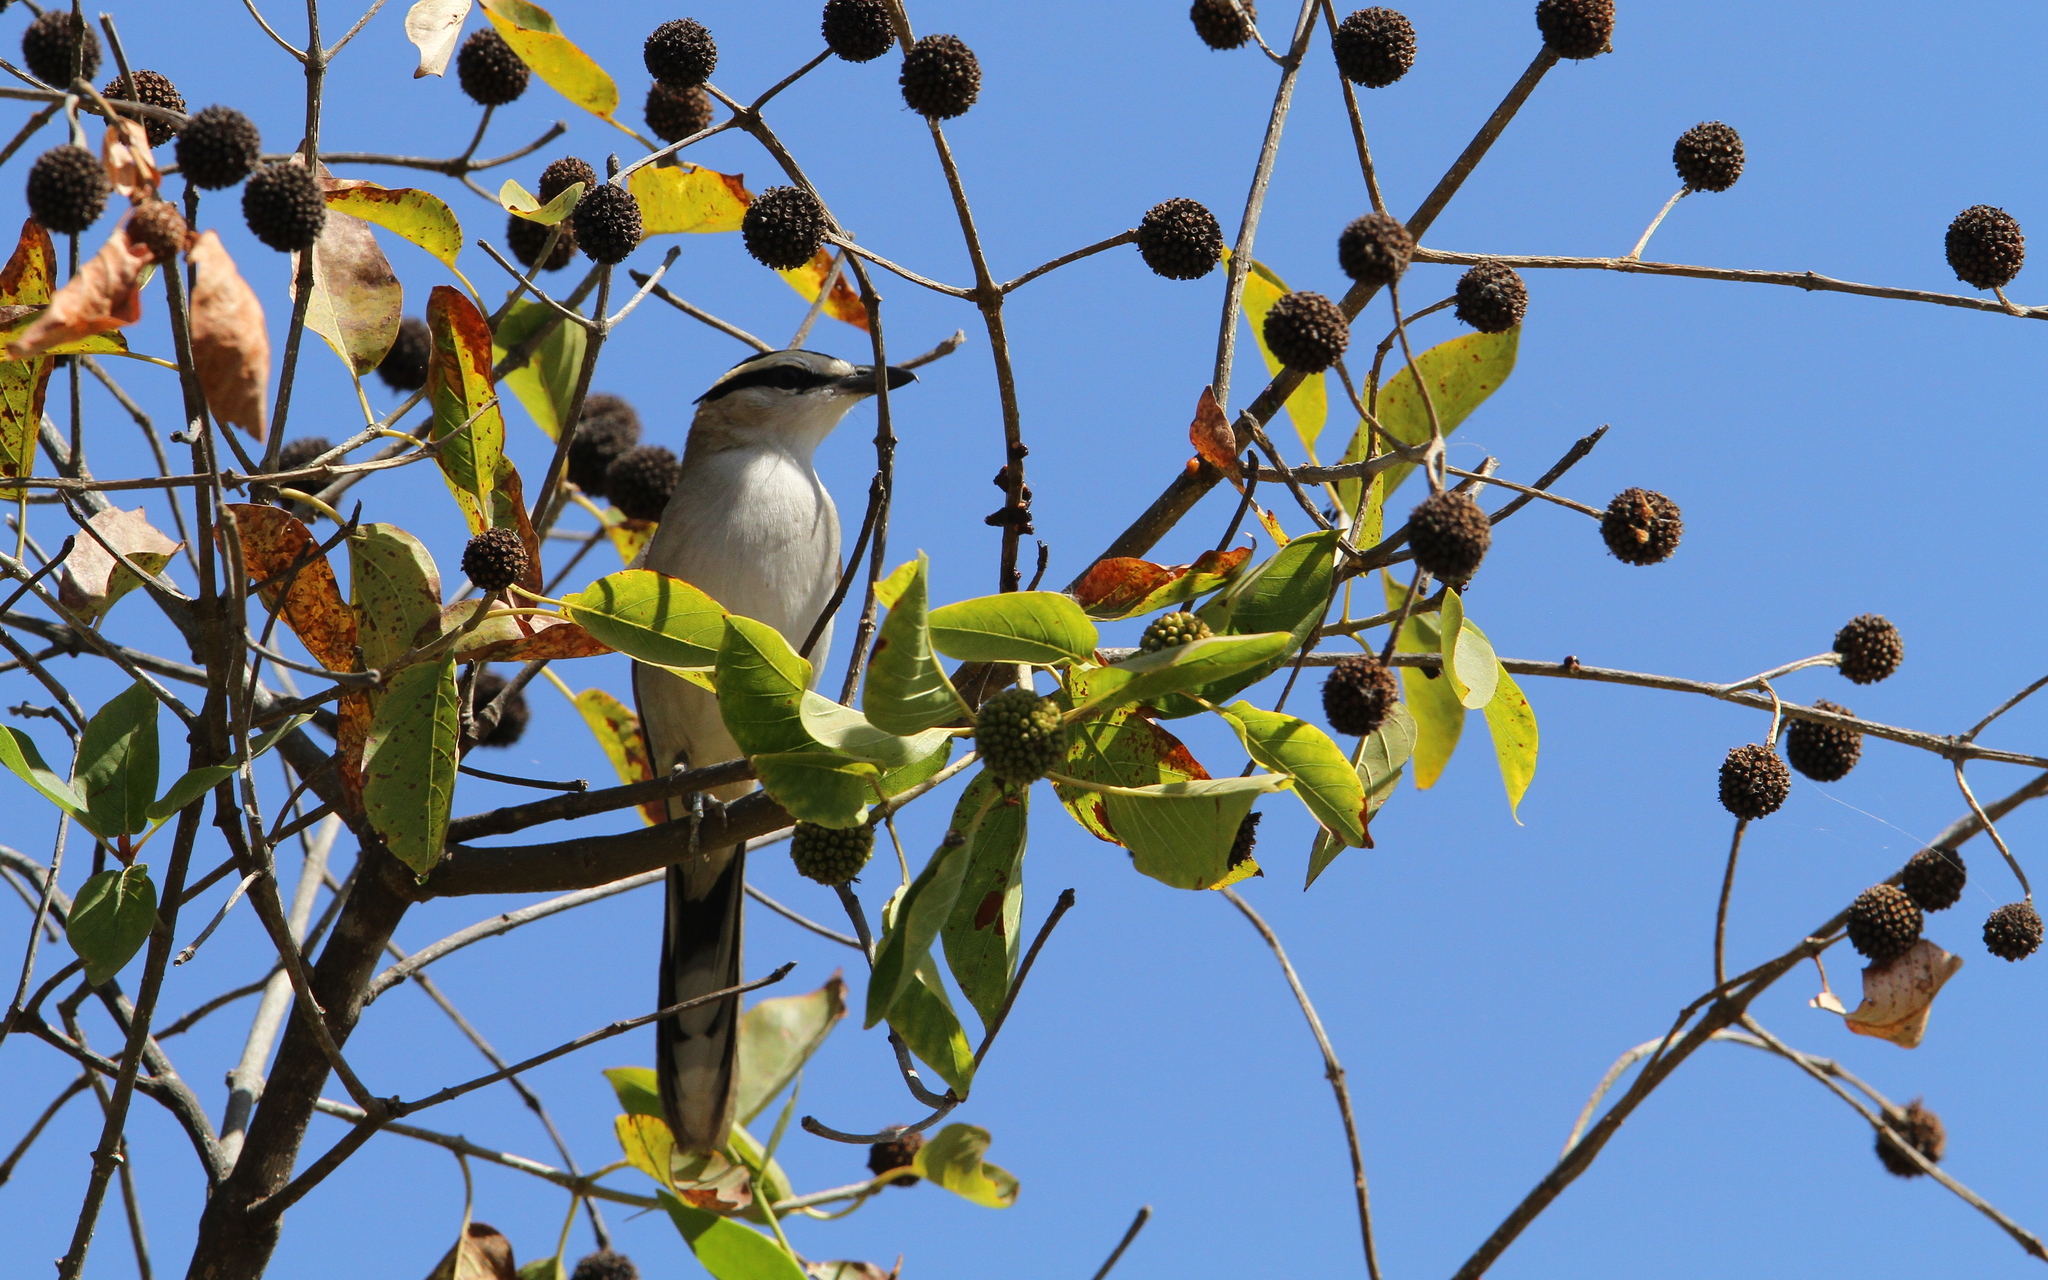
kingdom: Animalia
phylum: Chordata
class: Aves
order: Passeriformes
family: Malaconotidae
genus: Tchagra
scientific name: Tchagra senegalus
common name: Black-crowned tchagra
